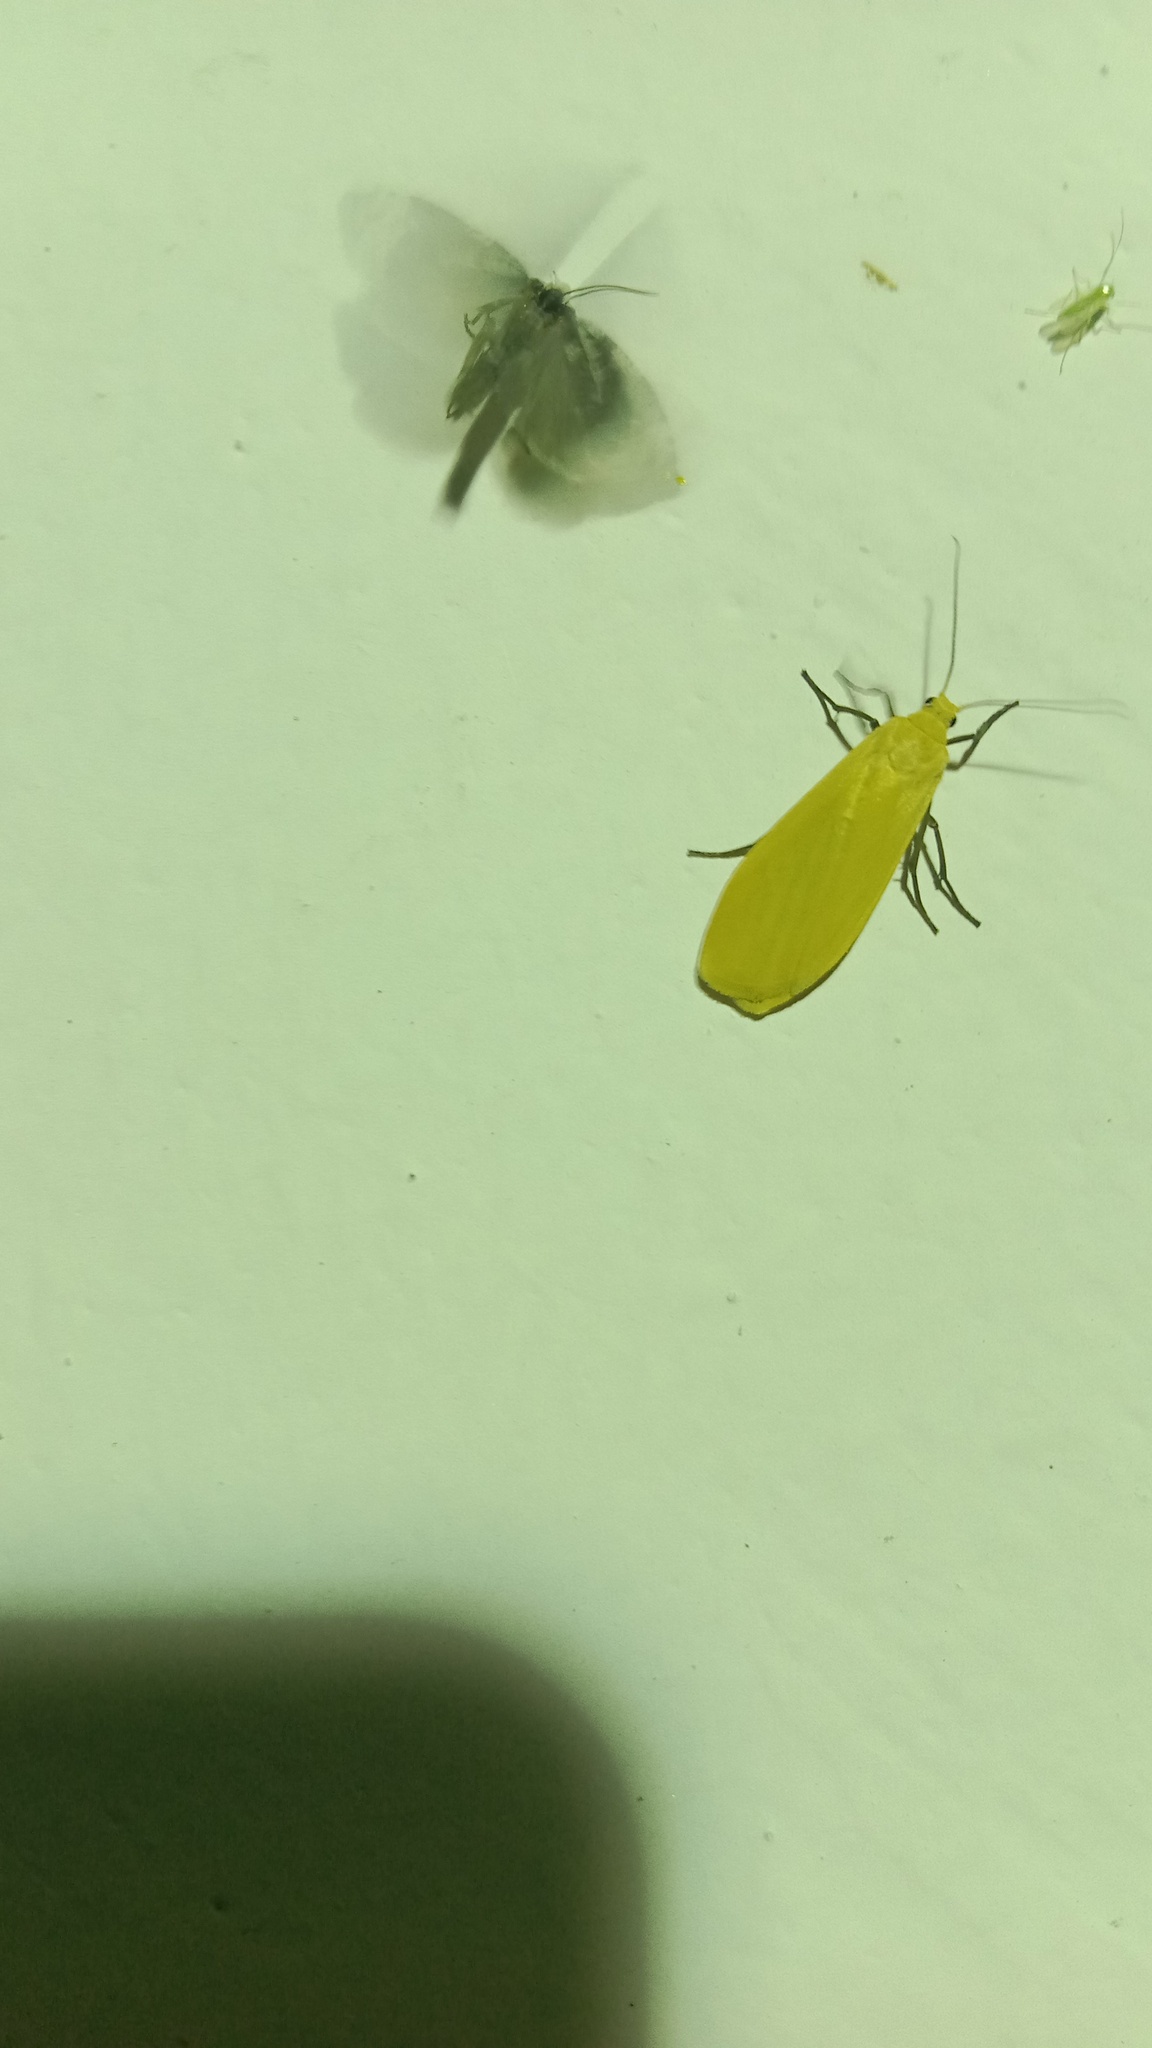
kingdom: Animalia
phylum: Arthropoda
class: Insecta
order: Lepidoptera
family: Erebidae
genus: Wittia
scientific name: Wittia sororcula
